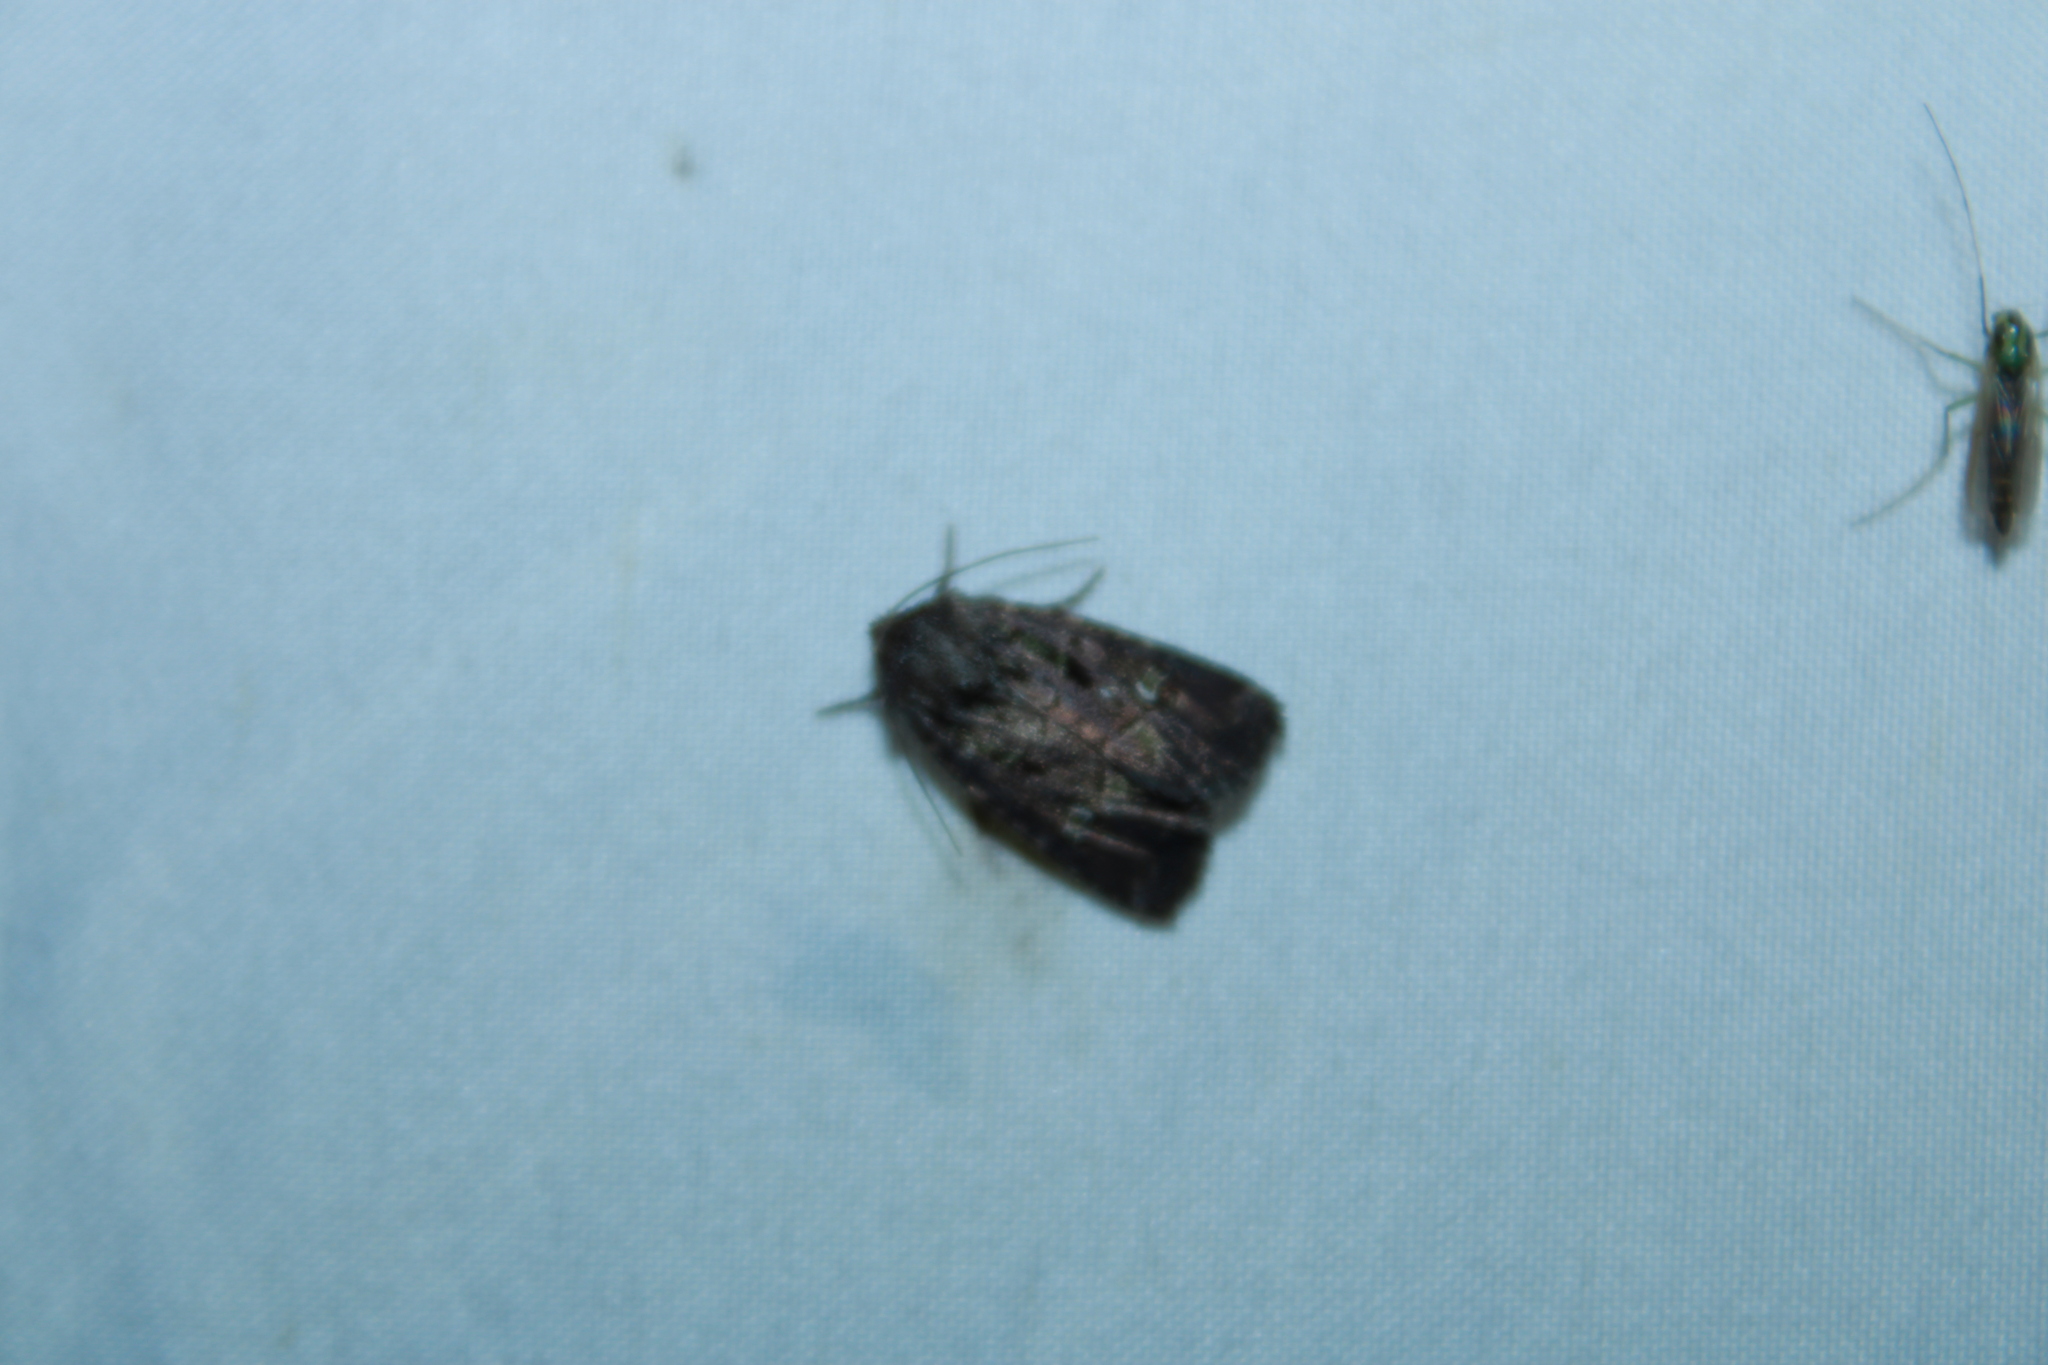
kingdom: Animalia
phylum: Arthropoda
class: Insecta
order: Lepidoptera
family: Noctuidae
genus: Lacinipolia
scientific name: Lacinipolia renigera
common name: Kidney-spotted minor
